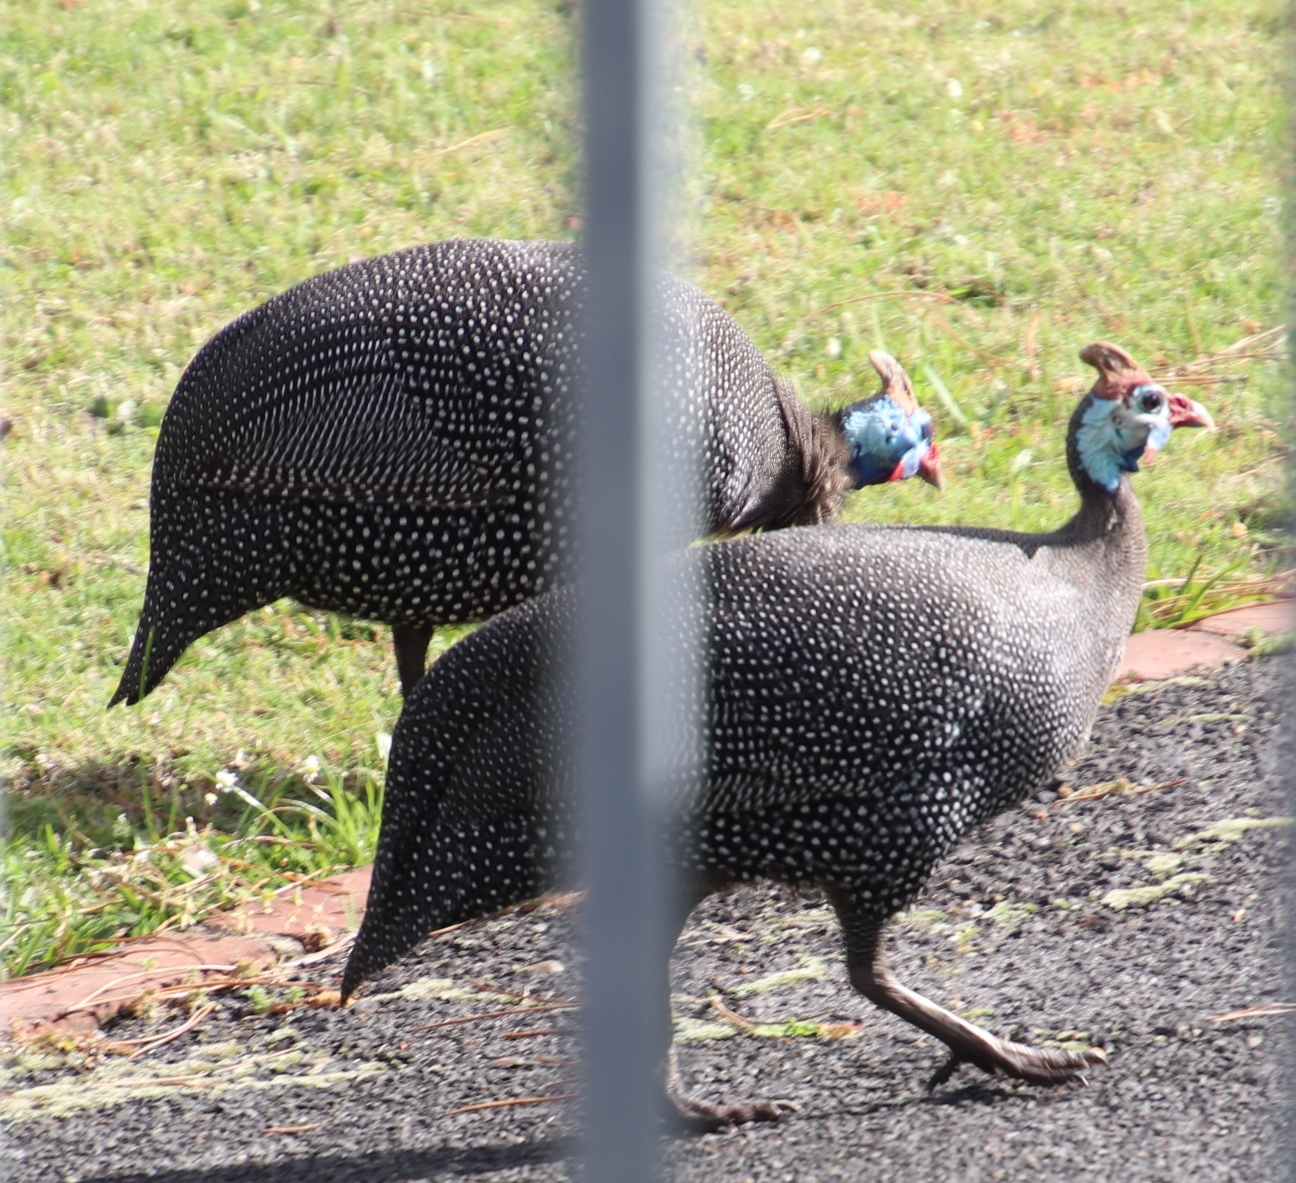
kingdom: Animalia
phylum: Chordata
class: Aves
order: Galliformes
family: Numididae
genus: Numida
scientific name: Numida meleagris
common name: Helmeted guineafowl
